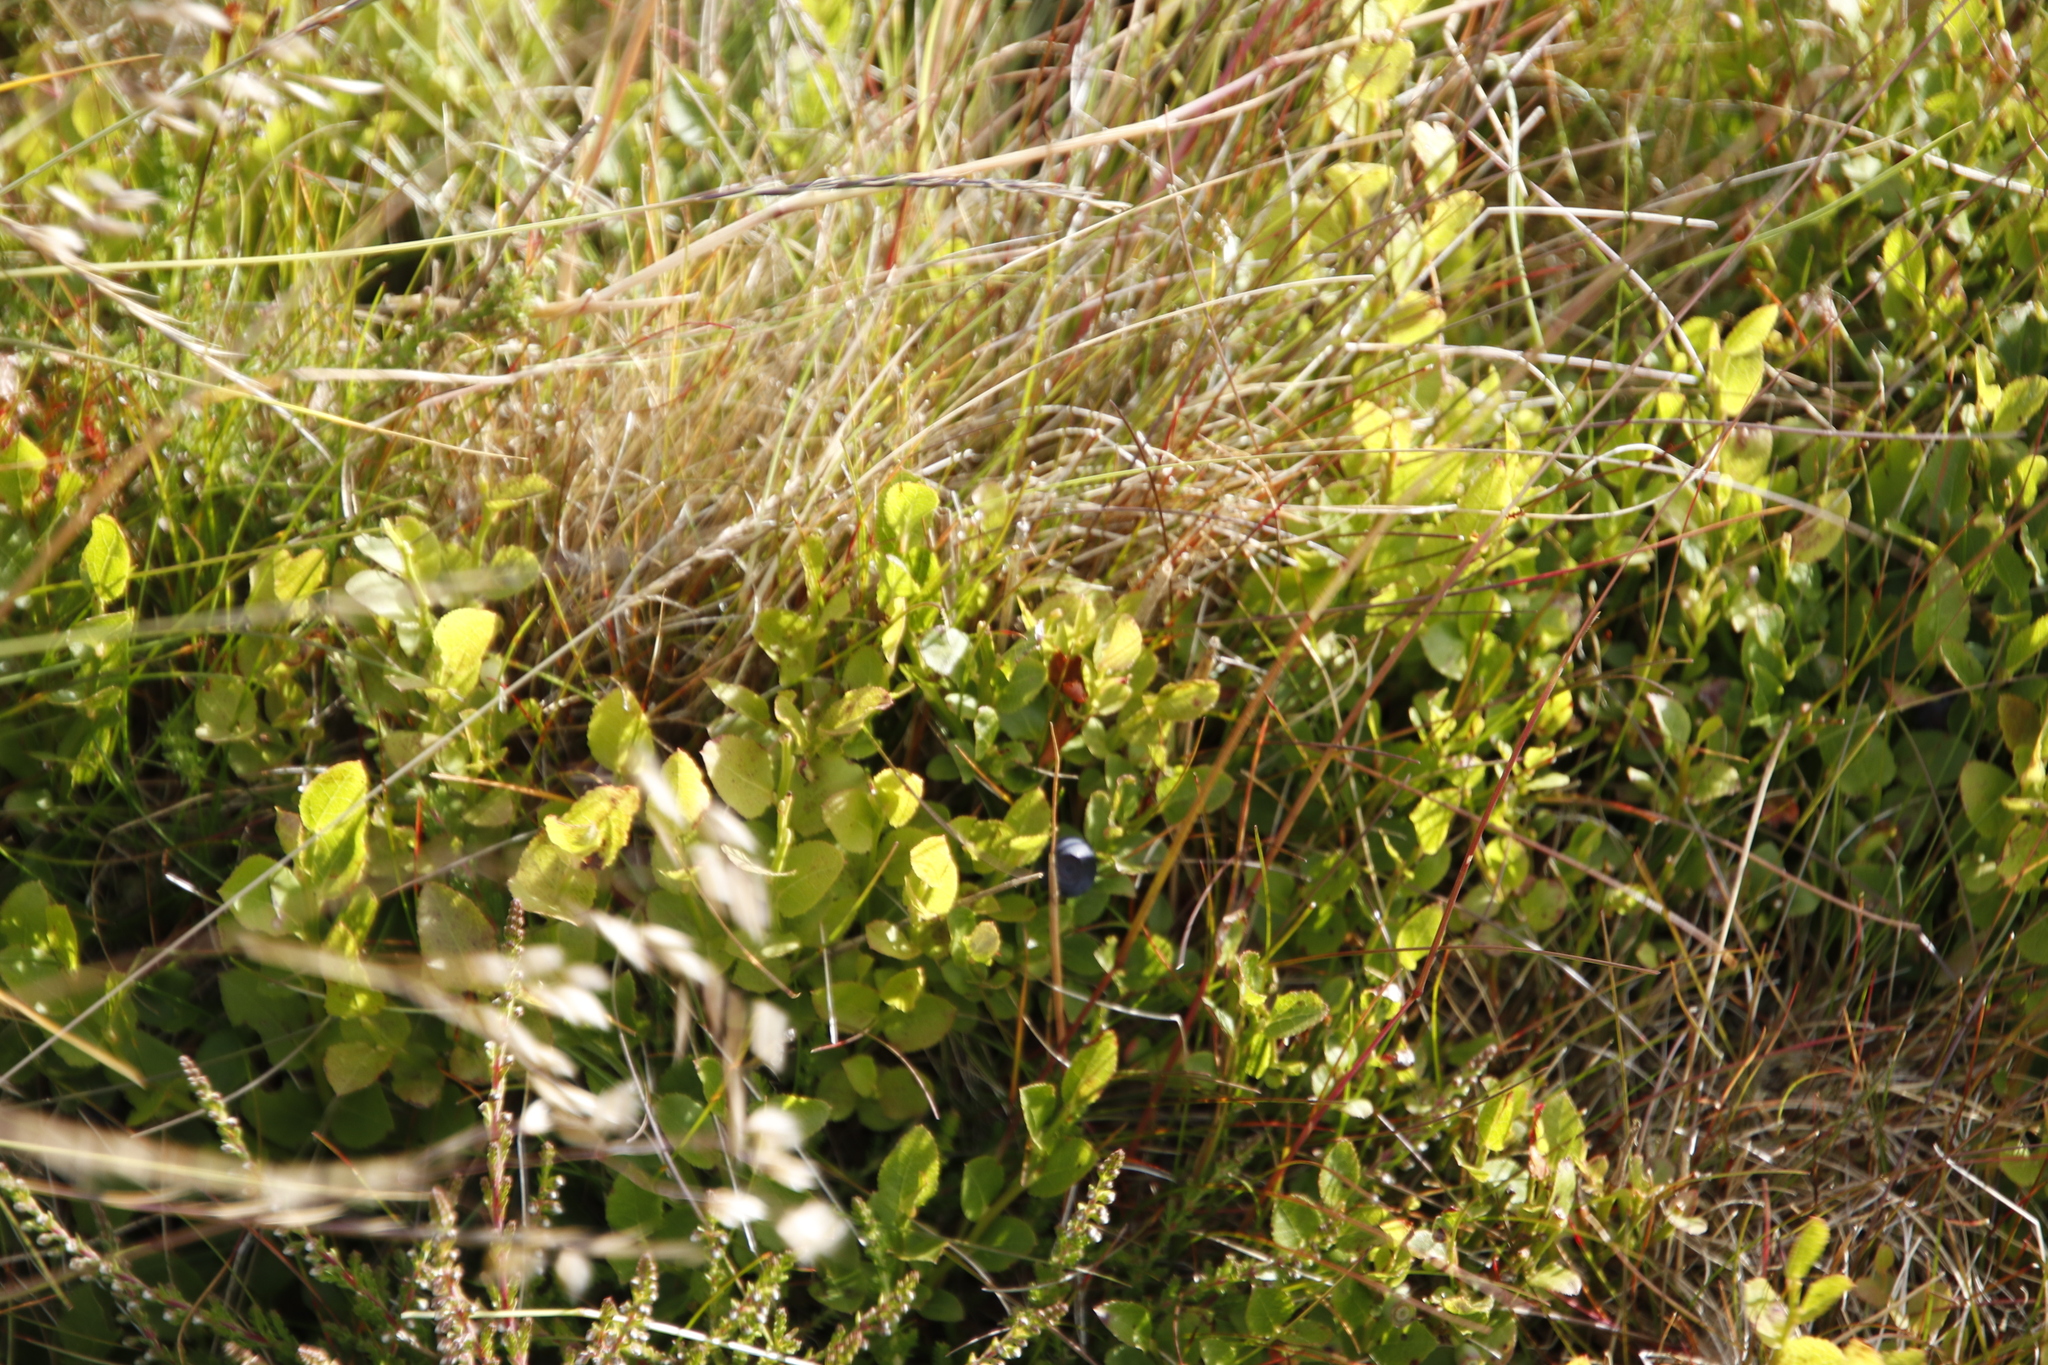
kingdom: Plantae
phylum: Tracheophyta
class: Magnoliopsida
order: Ericales
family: Ericaceae
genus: Vaccinium
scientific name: Vaccinium myrtillus
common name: Bilberry
